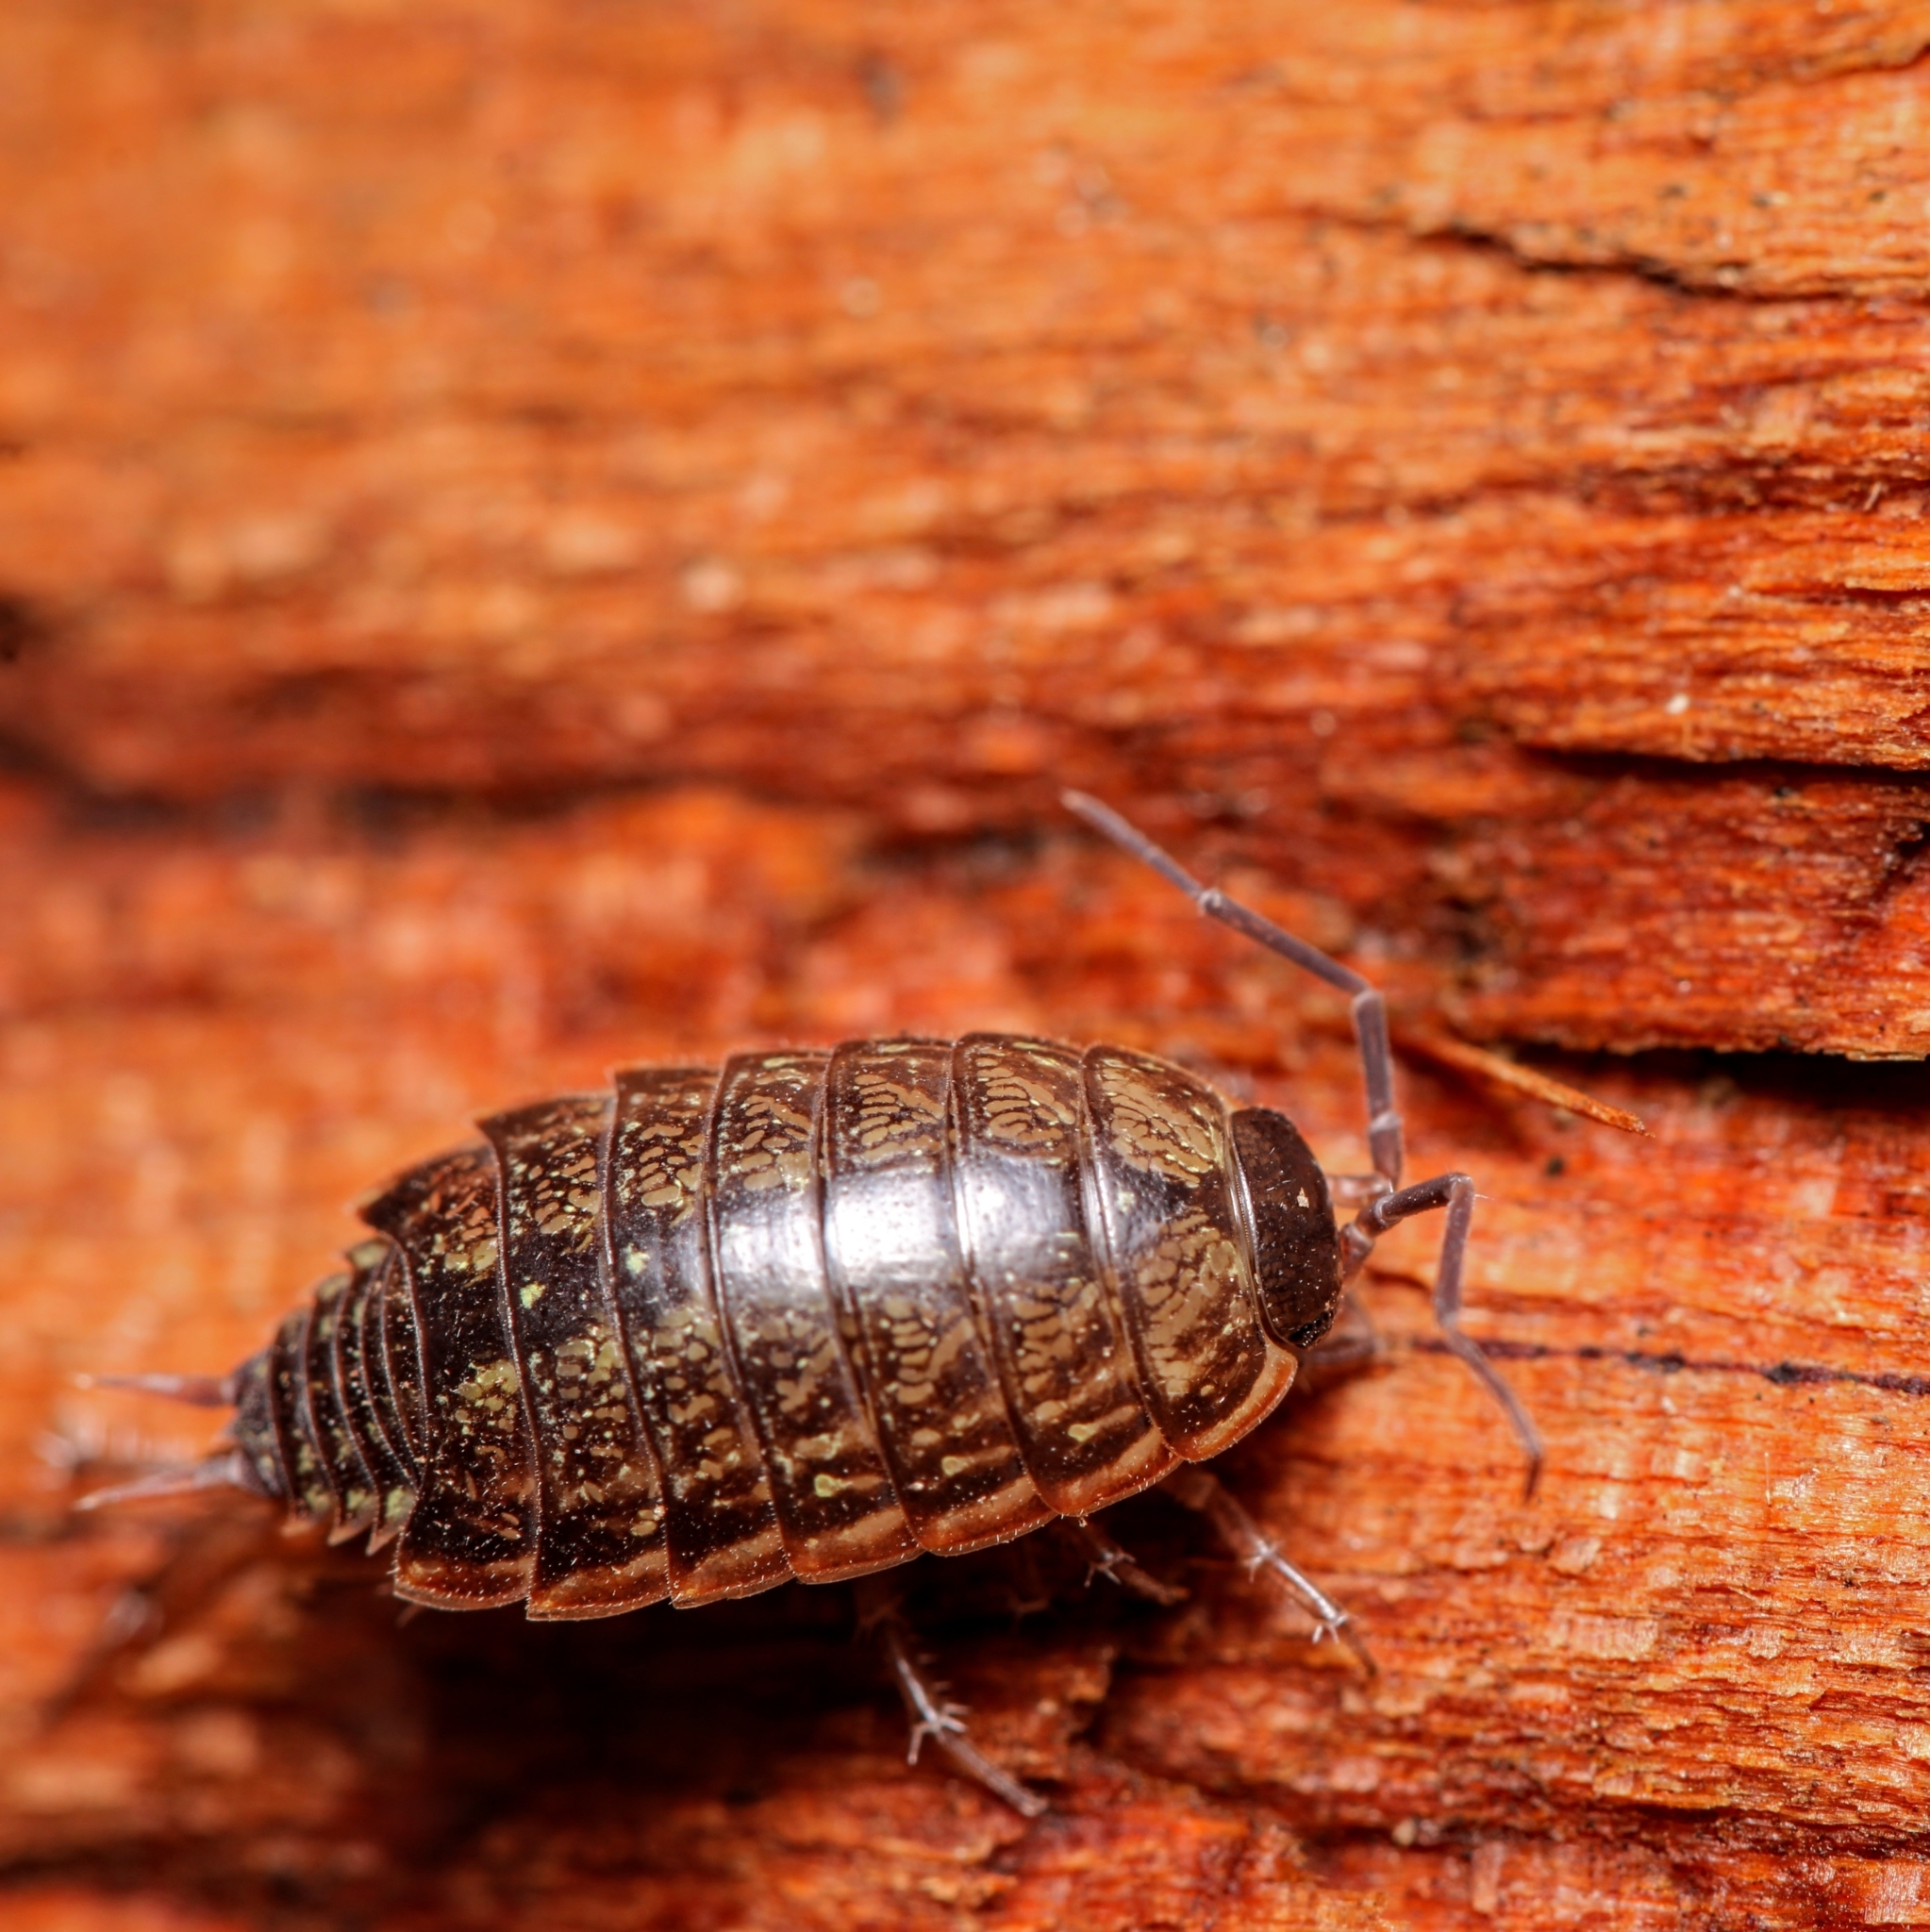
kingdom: Animalia
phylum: Arthropoda
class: Malacostraca
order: Isopoda
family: Philosciidae
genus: Philoscia
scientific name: Philoscia muscorum
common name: Common striped woodlouse
